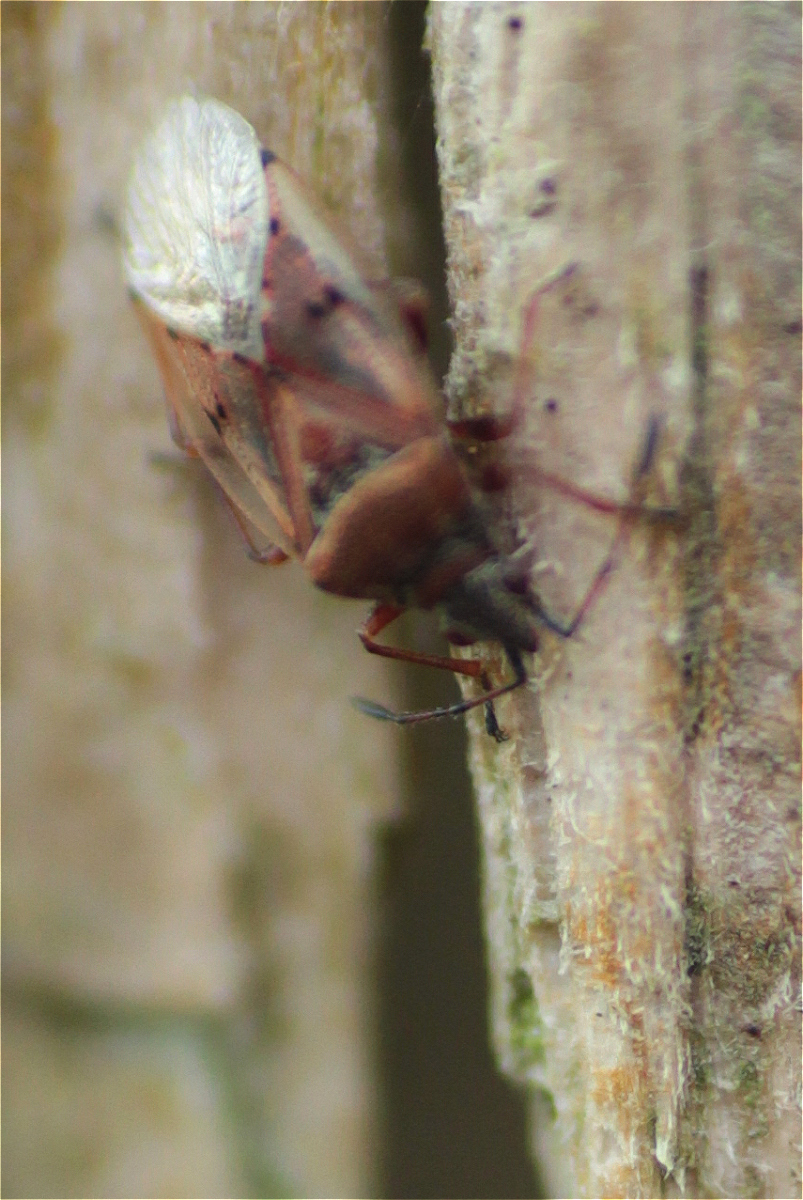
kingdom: Animalia
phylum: Arthropoda
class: Insecta
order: Hemiptera
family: Lygaeidae
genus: Kleidocerys
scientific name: Kleidocerys resedae
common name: Birch catkin bug
